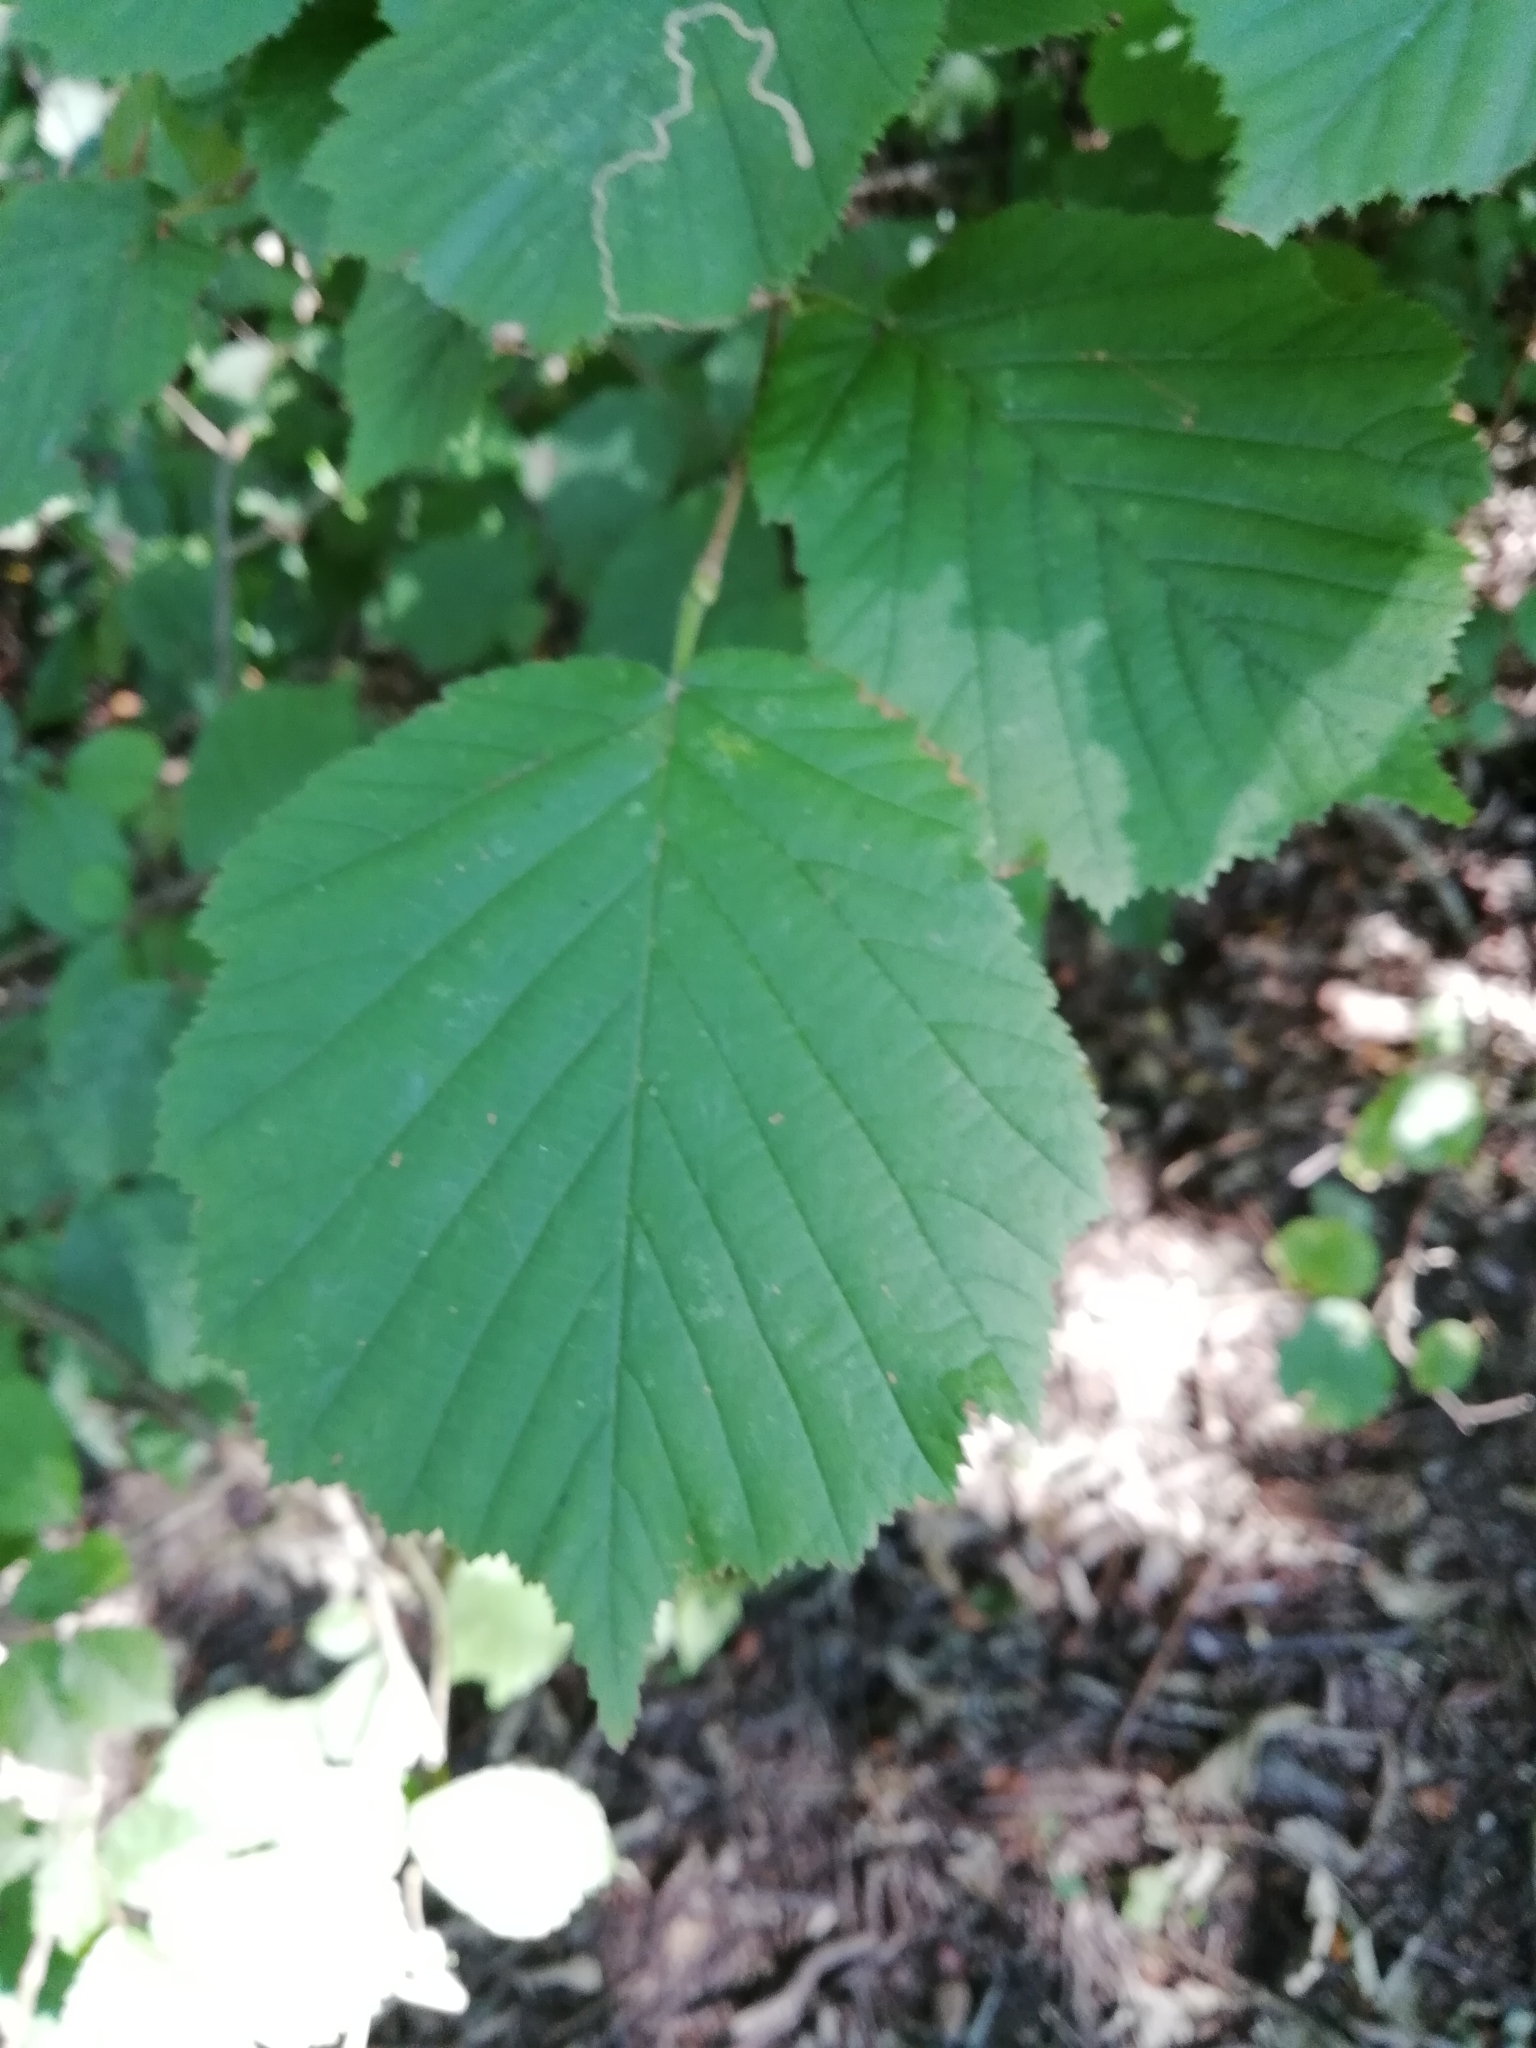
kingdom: Plantae
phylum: Tracheophyta
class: Magnoliopsida
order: Fagales
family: Betulaceae
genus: Corylus
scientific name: Corylus avellana
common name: European hazel
